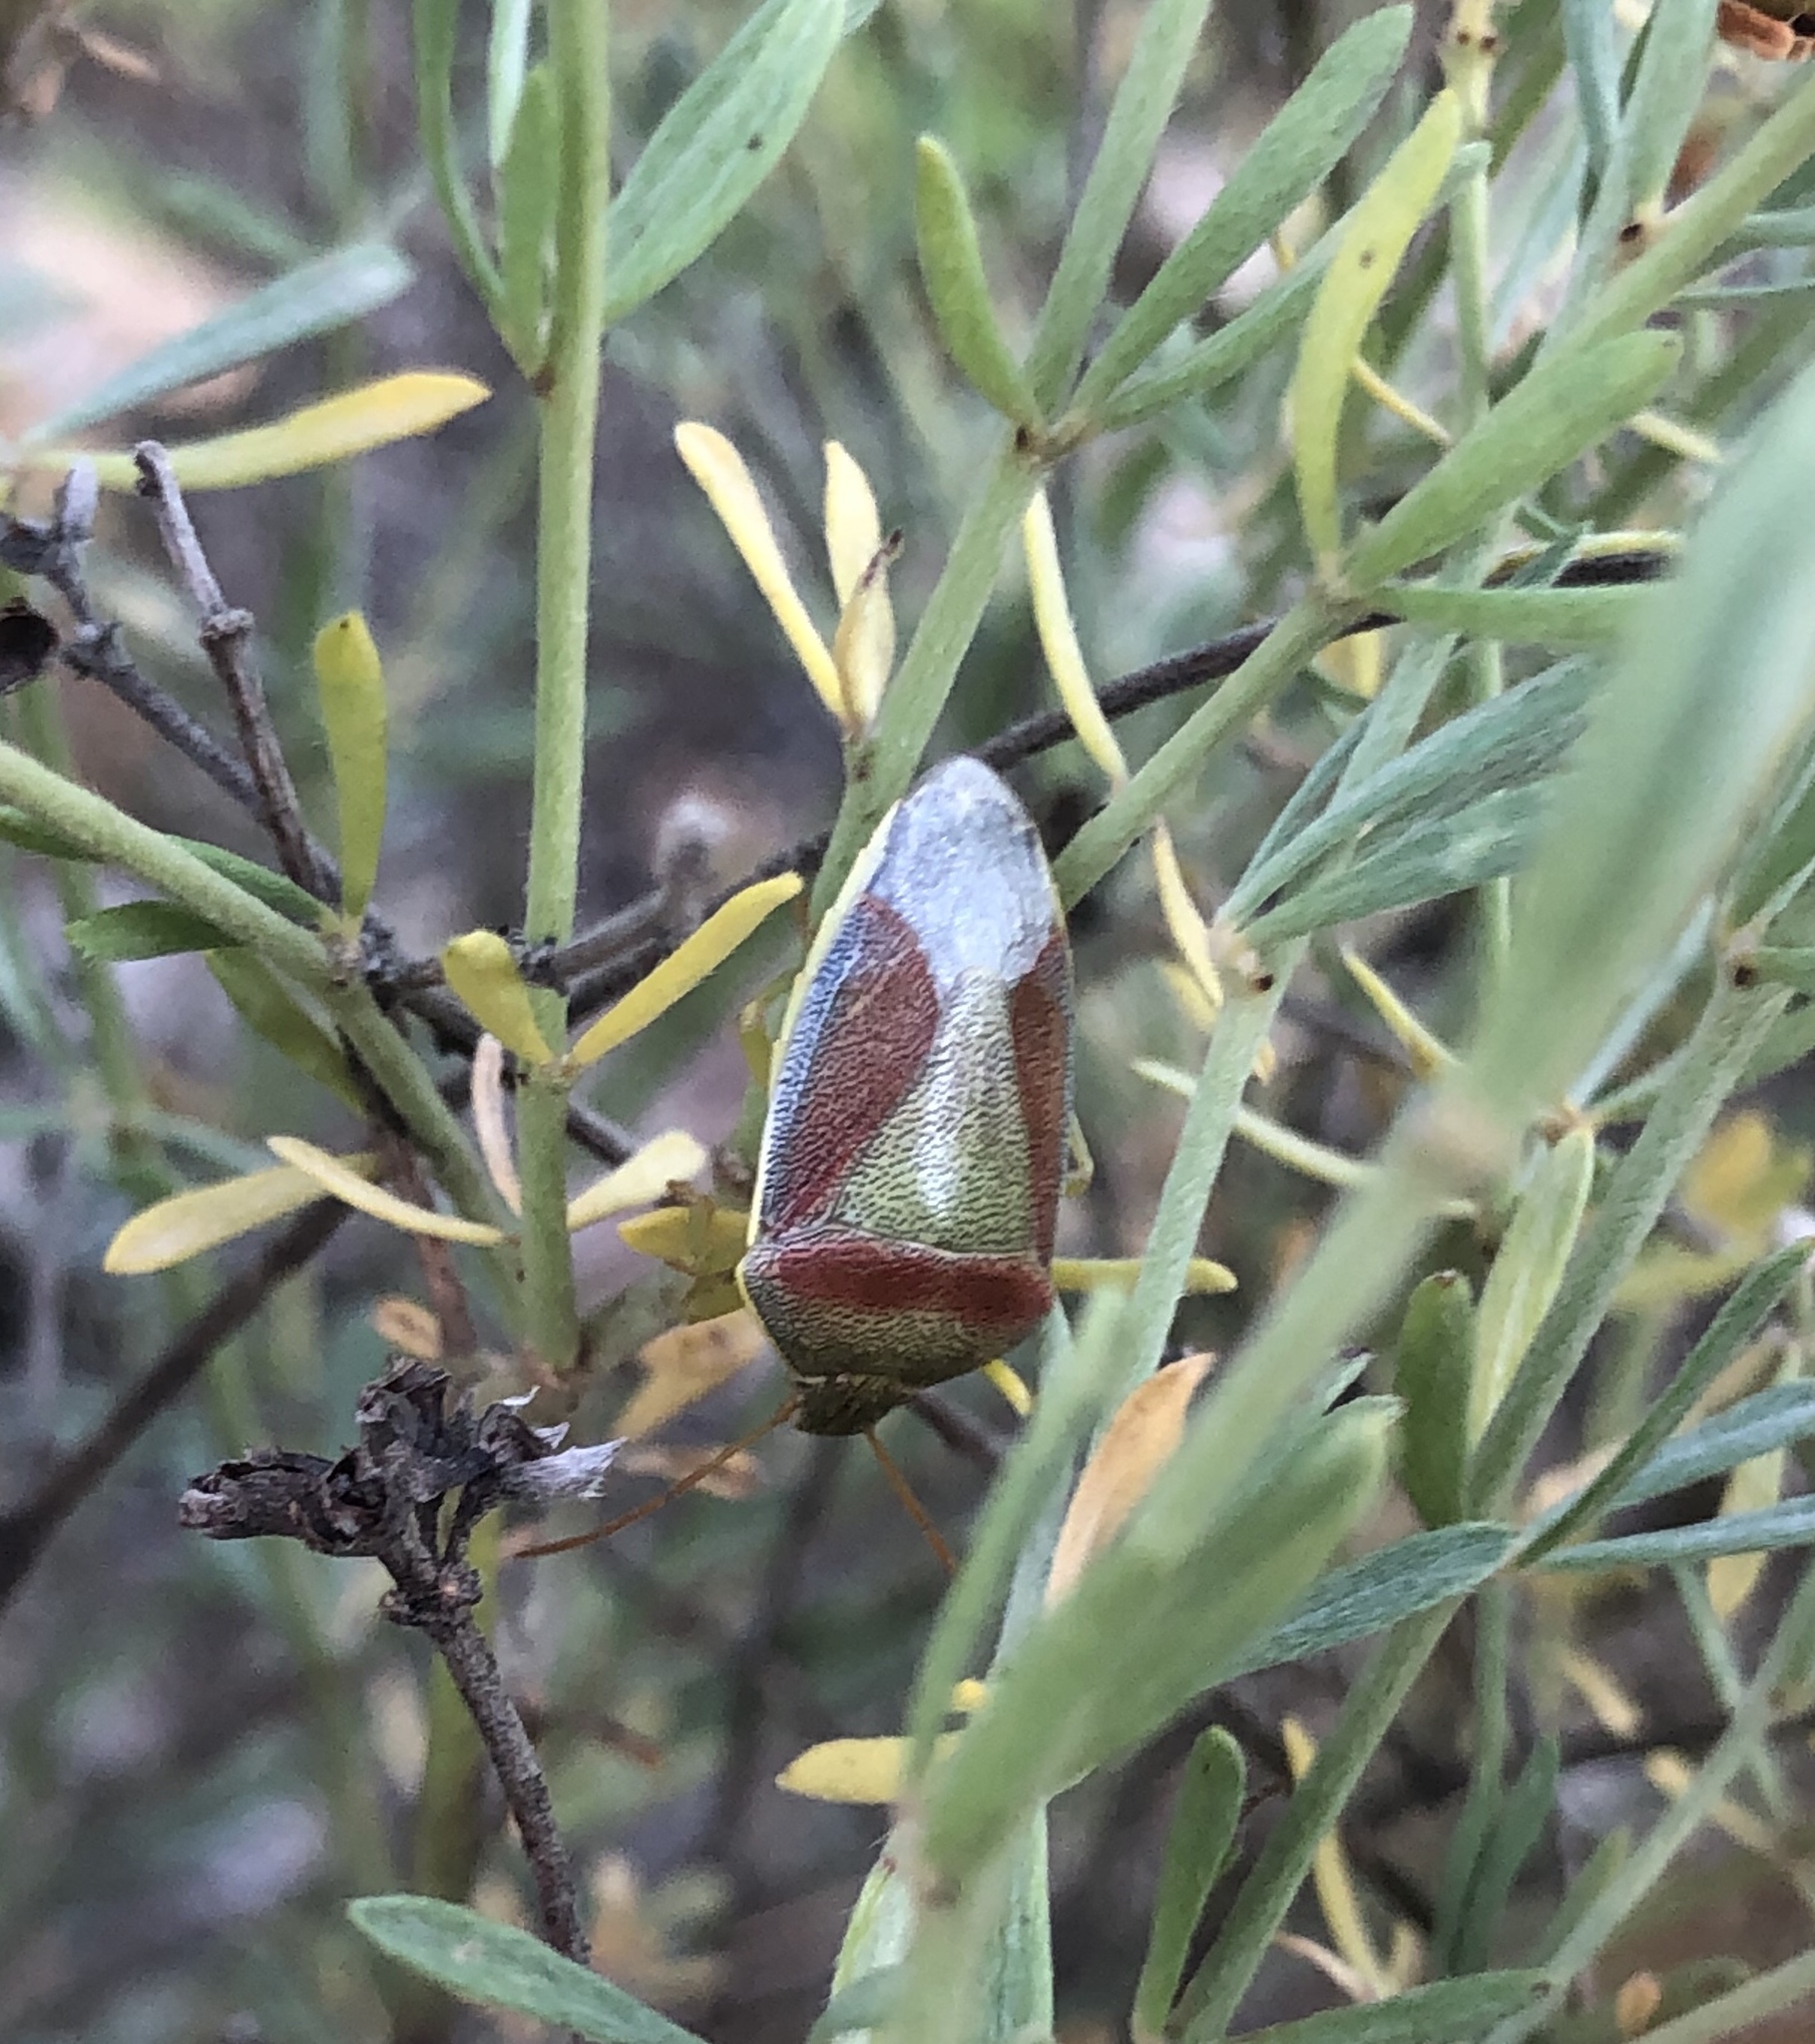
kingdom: Animalia
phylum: Arthropoda
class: Insecta
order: Hemiptera
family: Pentatomidae
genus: Piezodorus
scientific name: Piezodorus lituratus
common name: Stink bug
